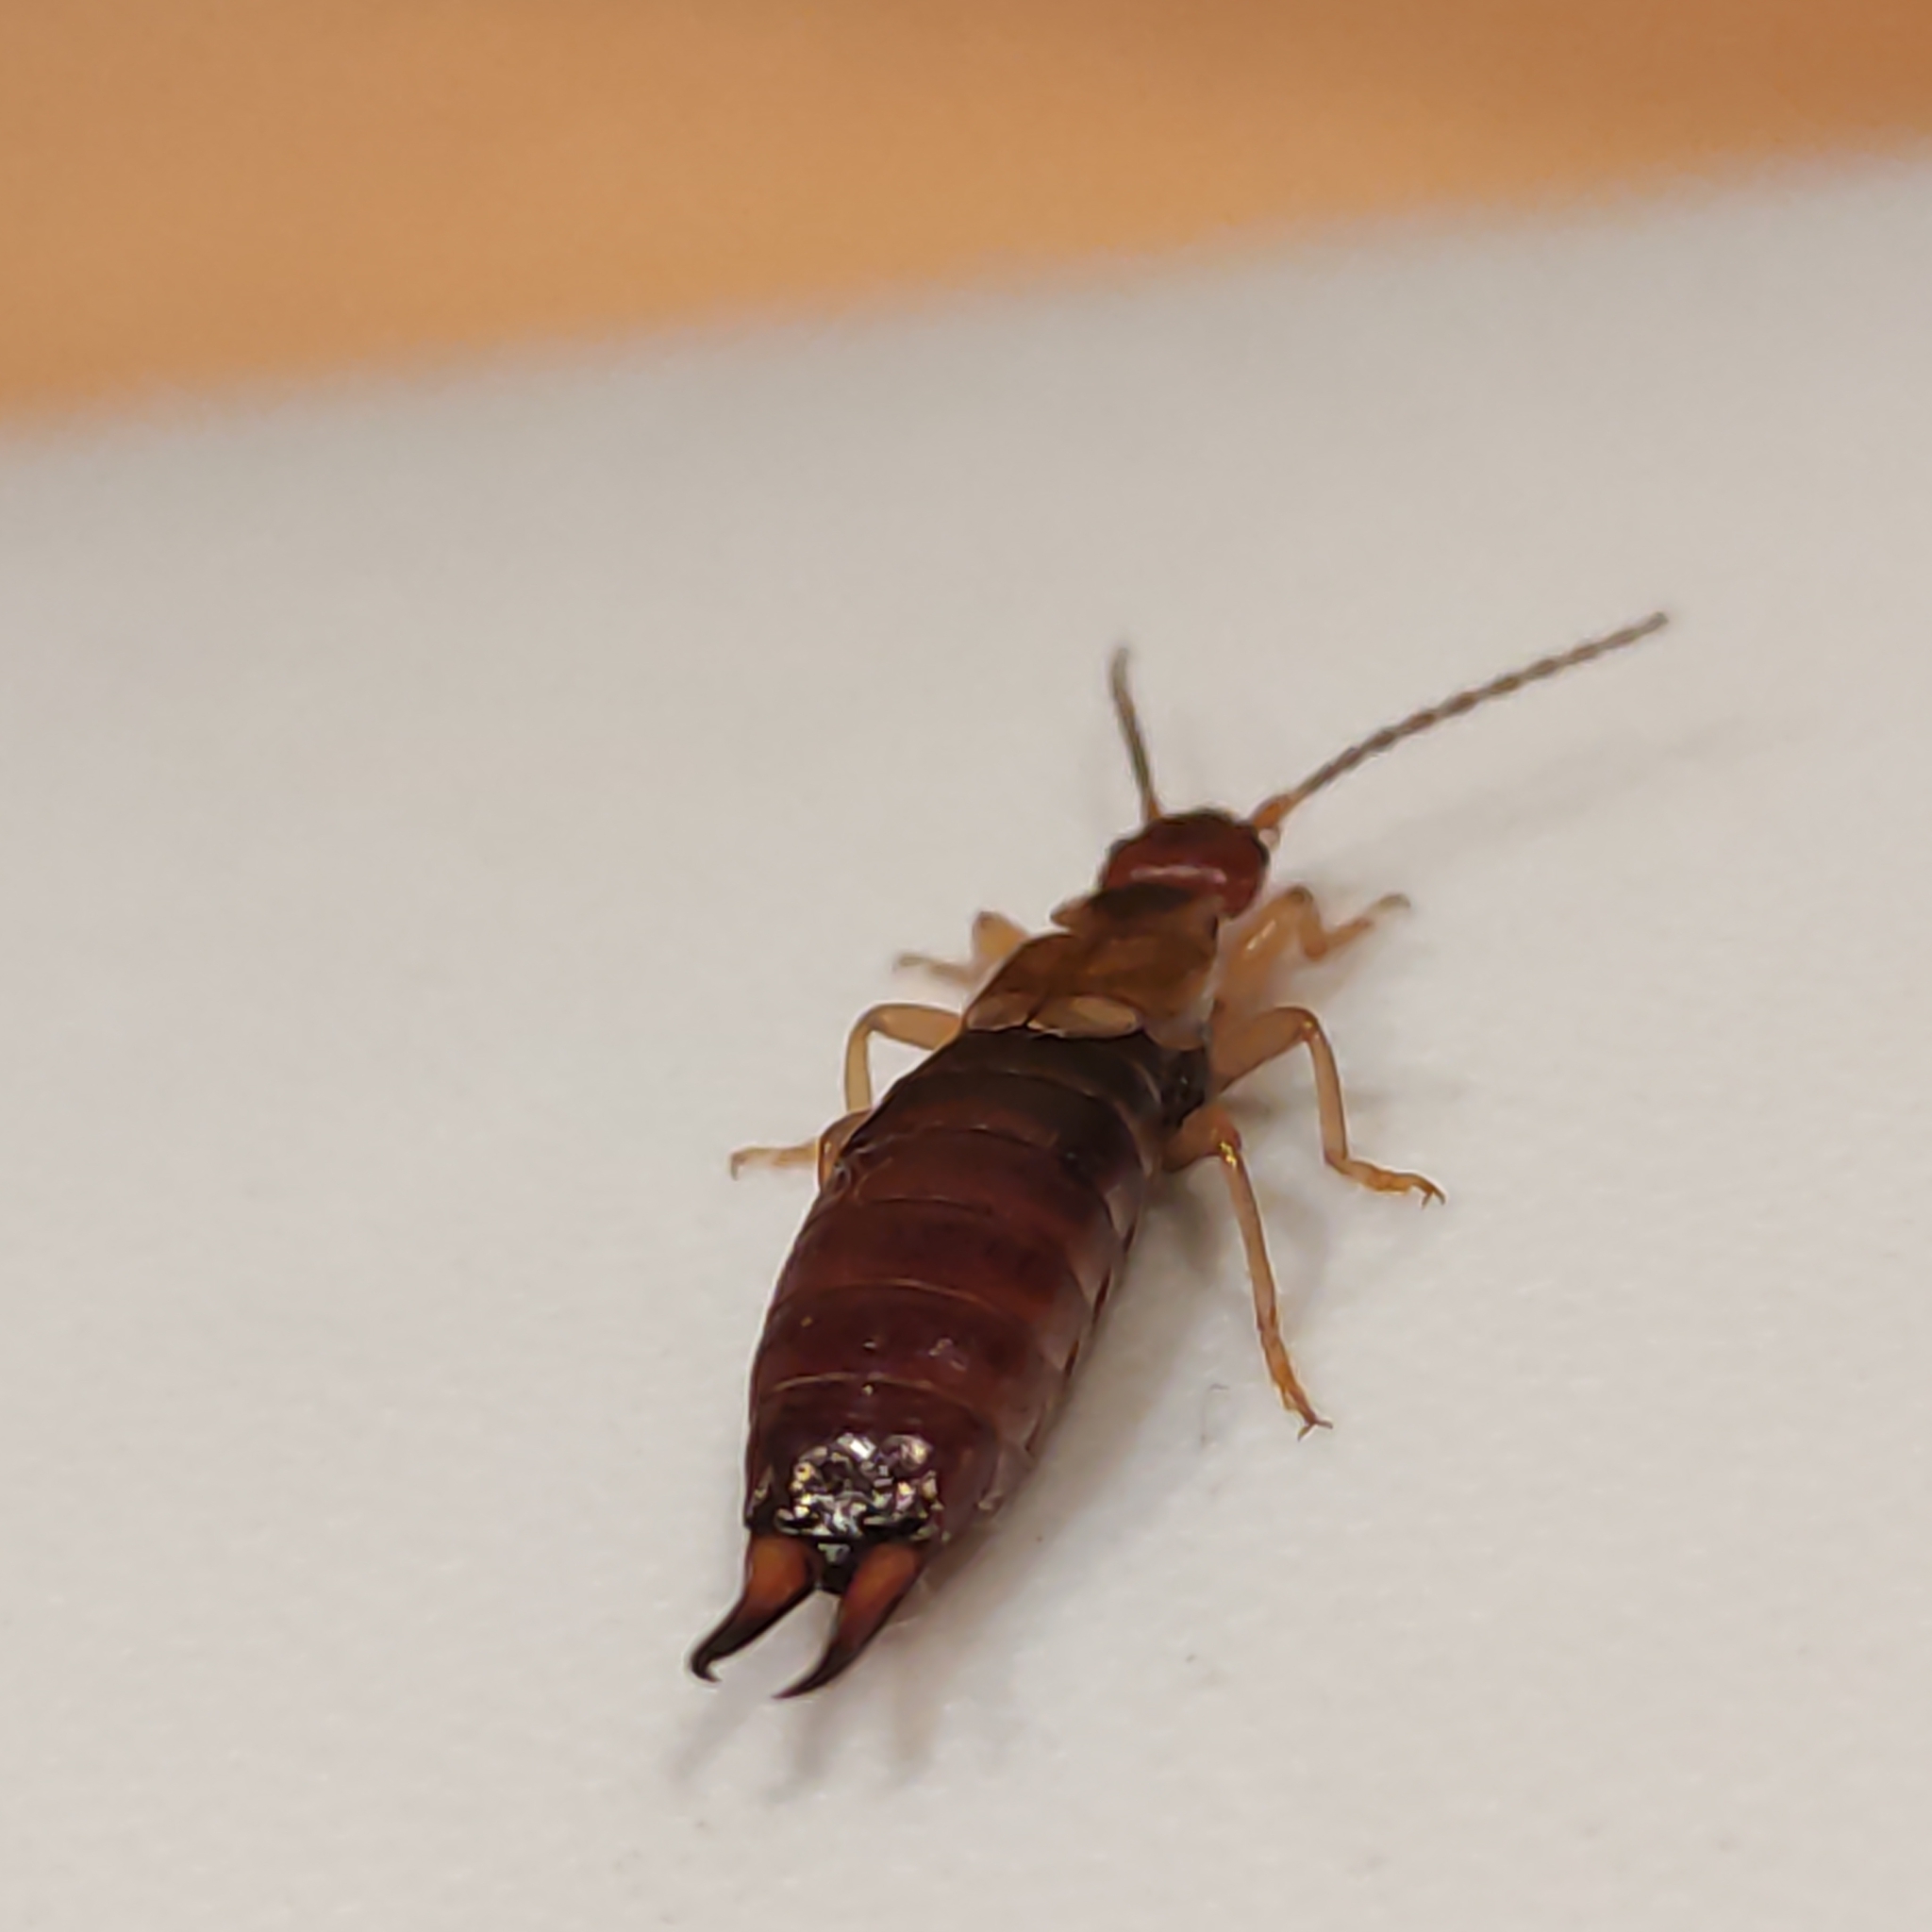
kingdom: Animalia
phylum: Arthropoda
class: Insecta
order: Dermaptera
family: Forficulidae
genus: Forficula
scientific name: Forficula dentata
